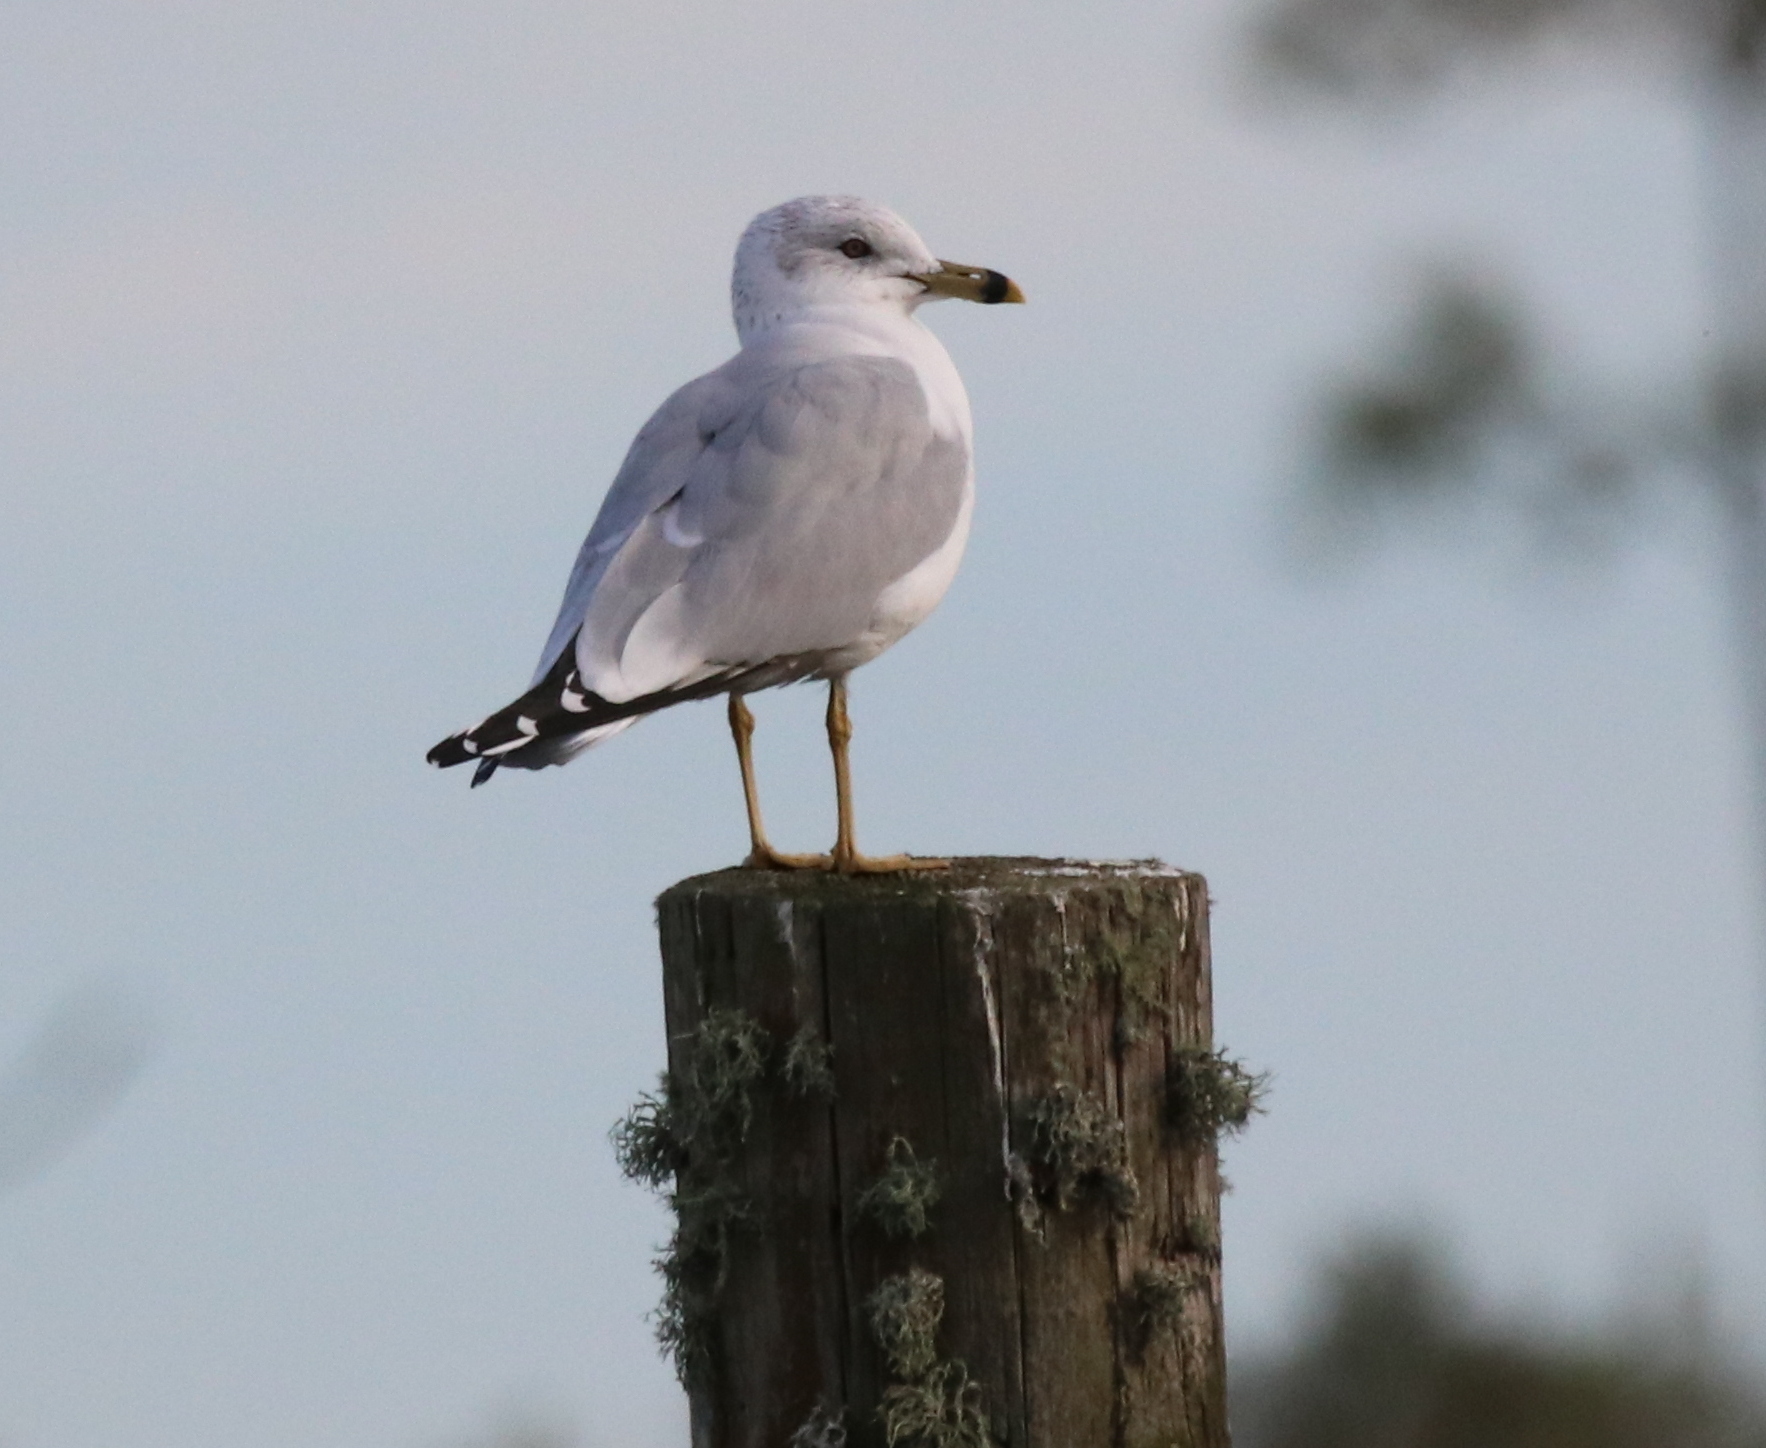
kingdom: Animalia
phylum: Chordata
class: Aves
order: Charadriiformes
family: Laridae
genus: Larus
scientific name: Larus delawarensis
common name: Ring-billed gull
